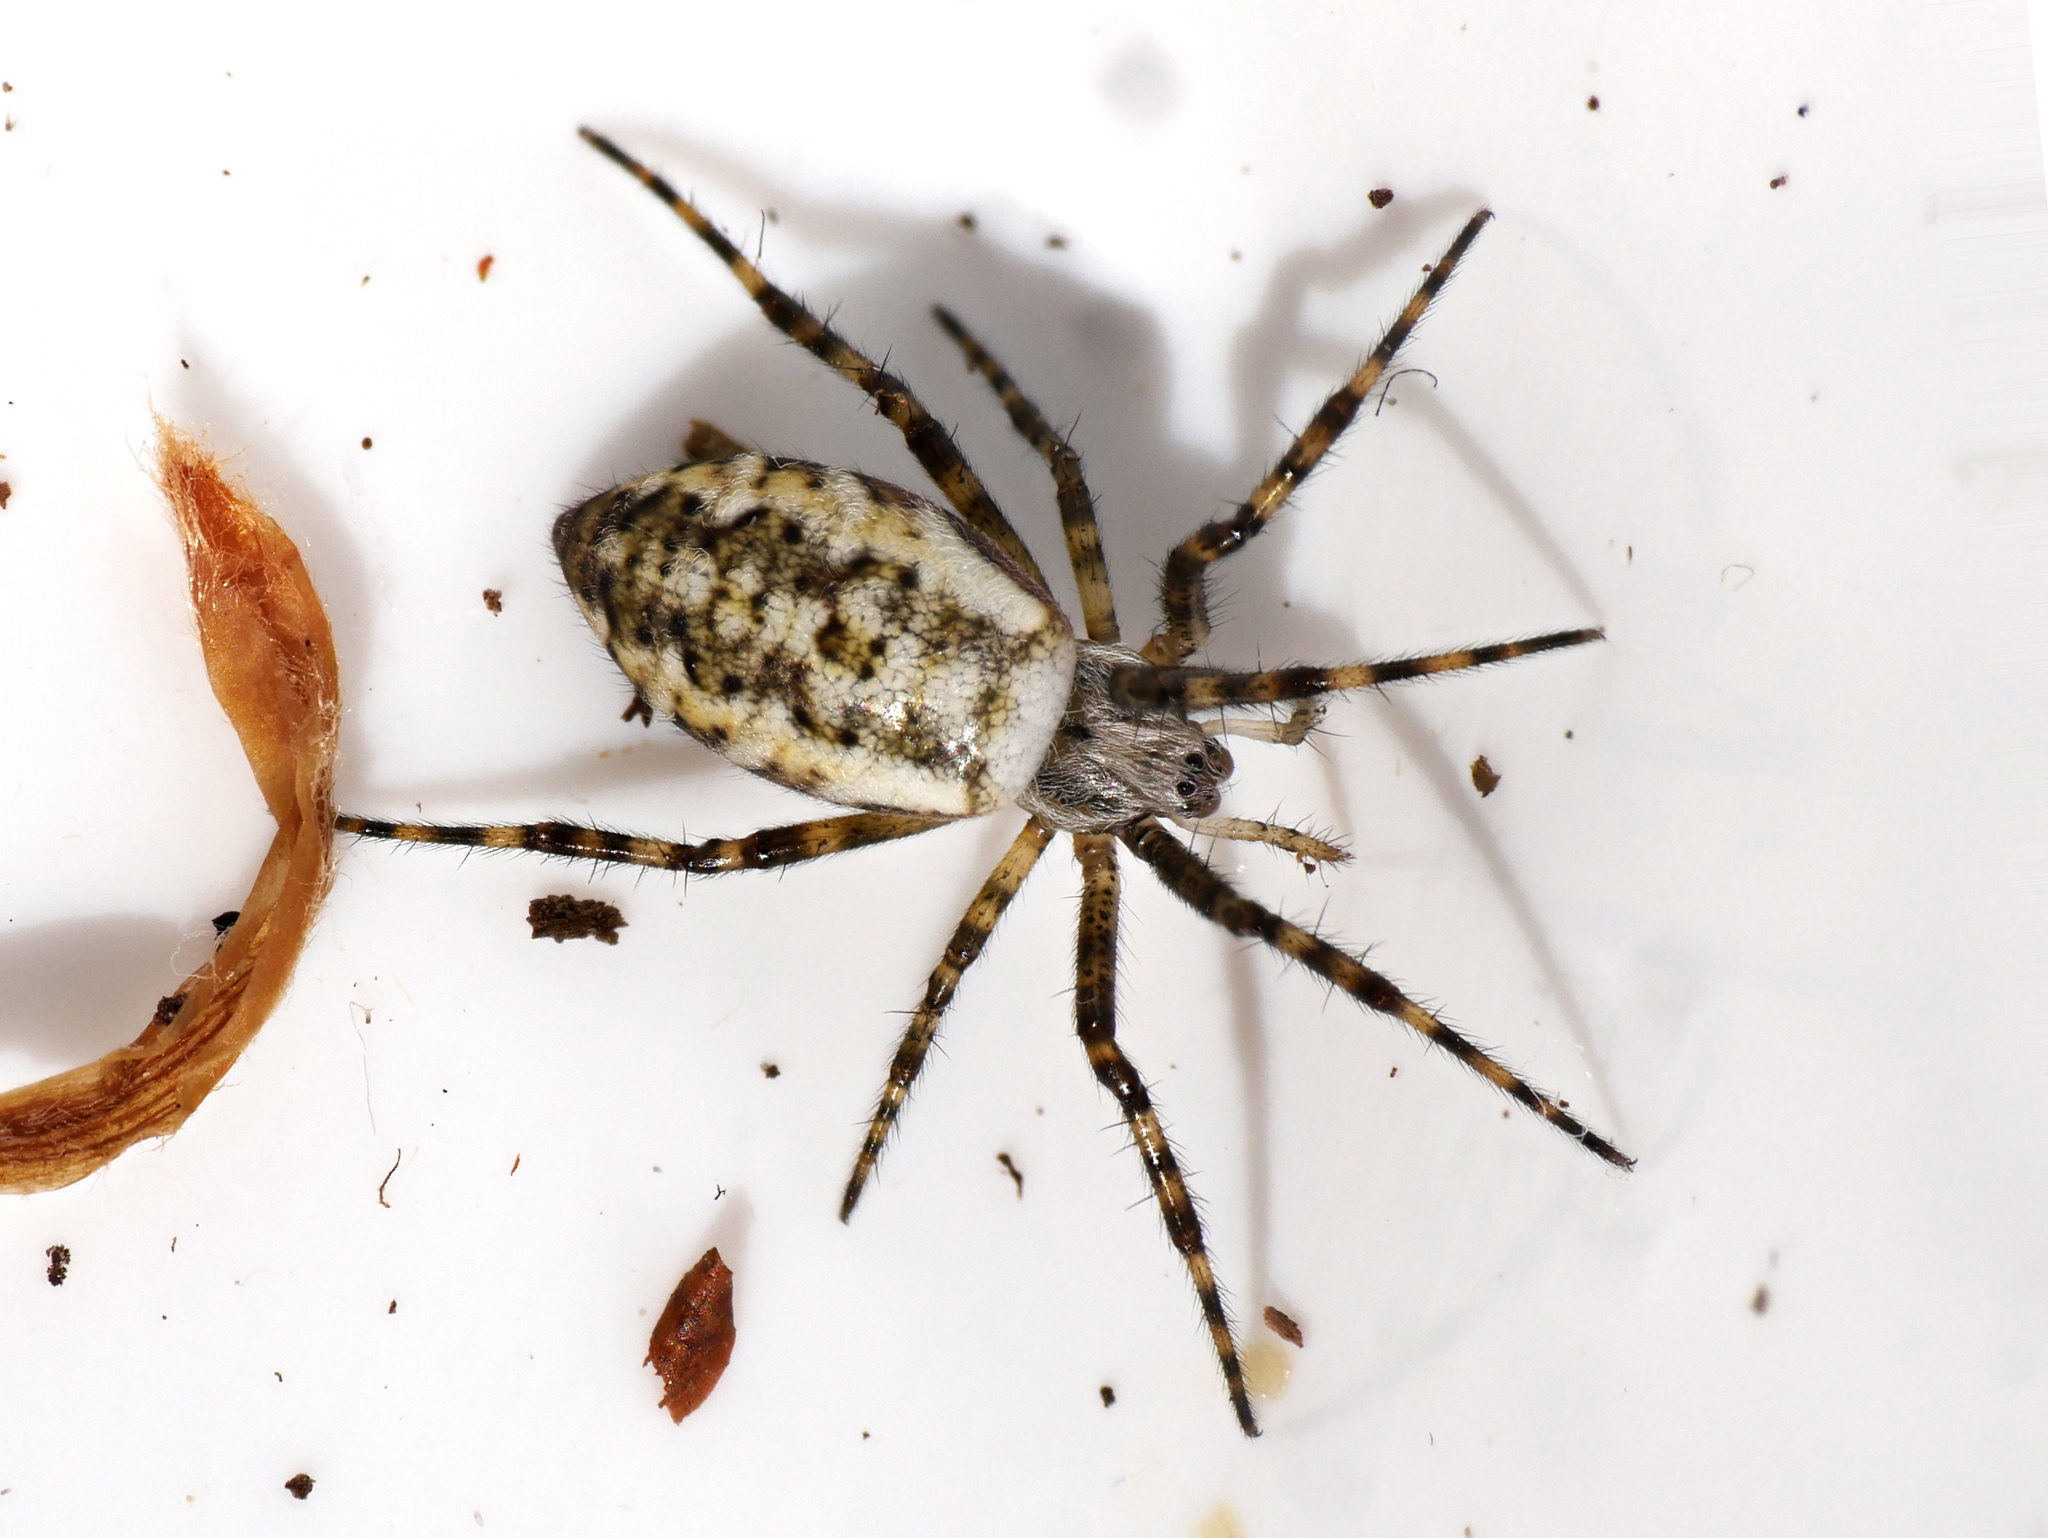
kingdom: Animalia
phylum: Arthropoda
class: Arachnida
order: Araneae
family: Araneidae
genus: Argiope
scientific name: Argiope bruennichi
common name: Wasp spider
